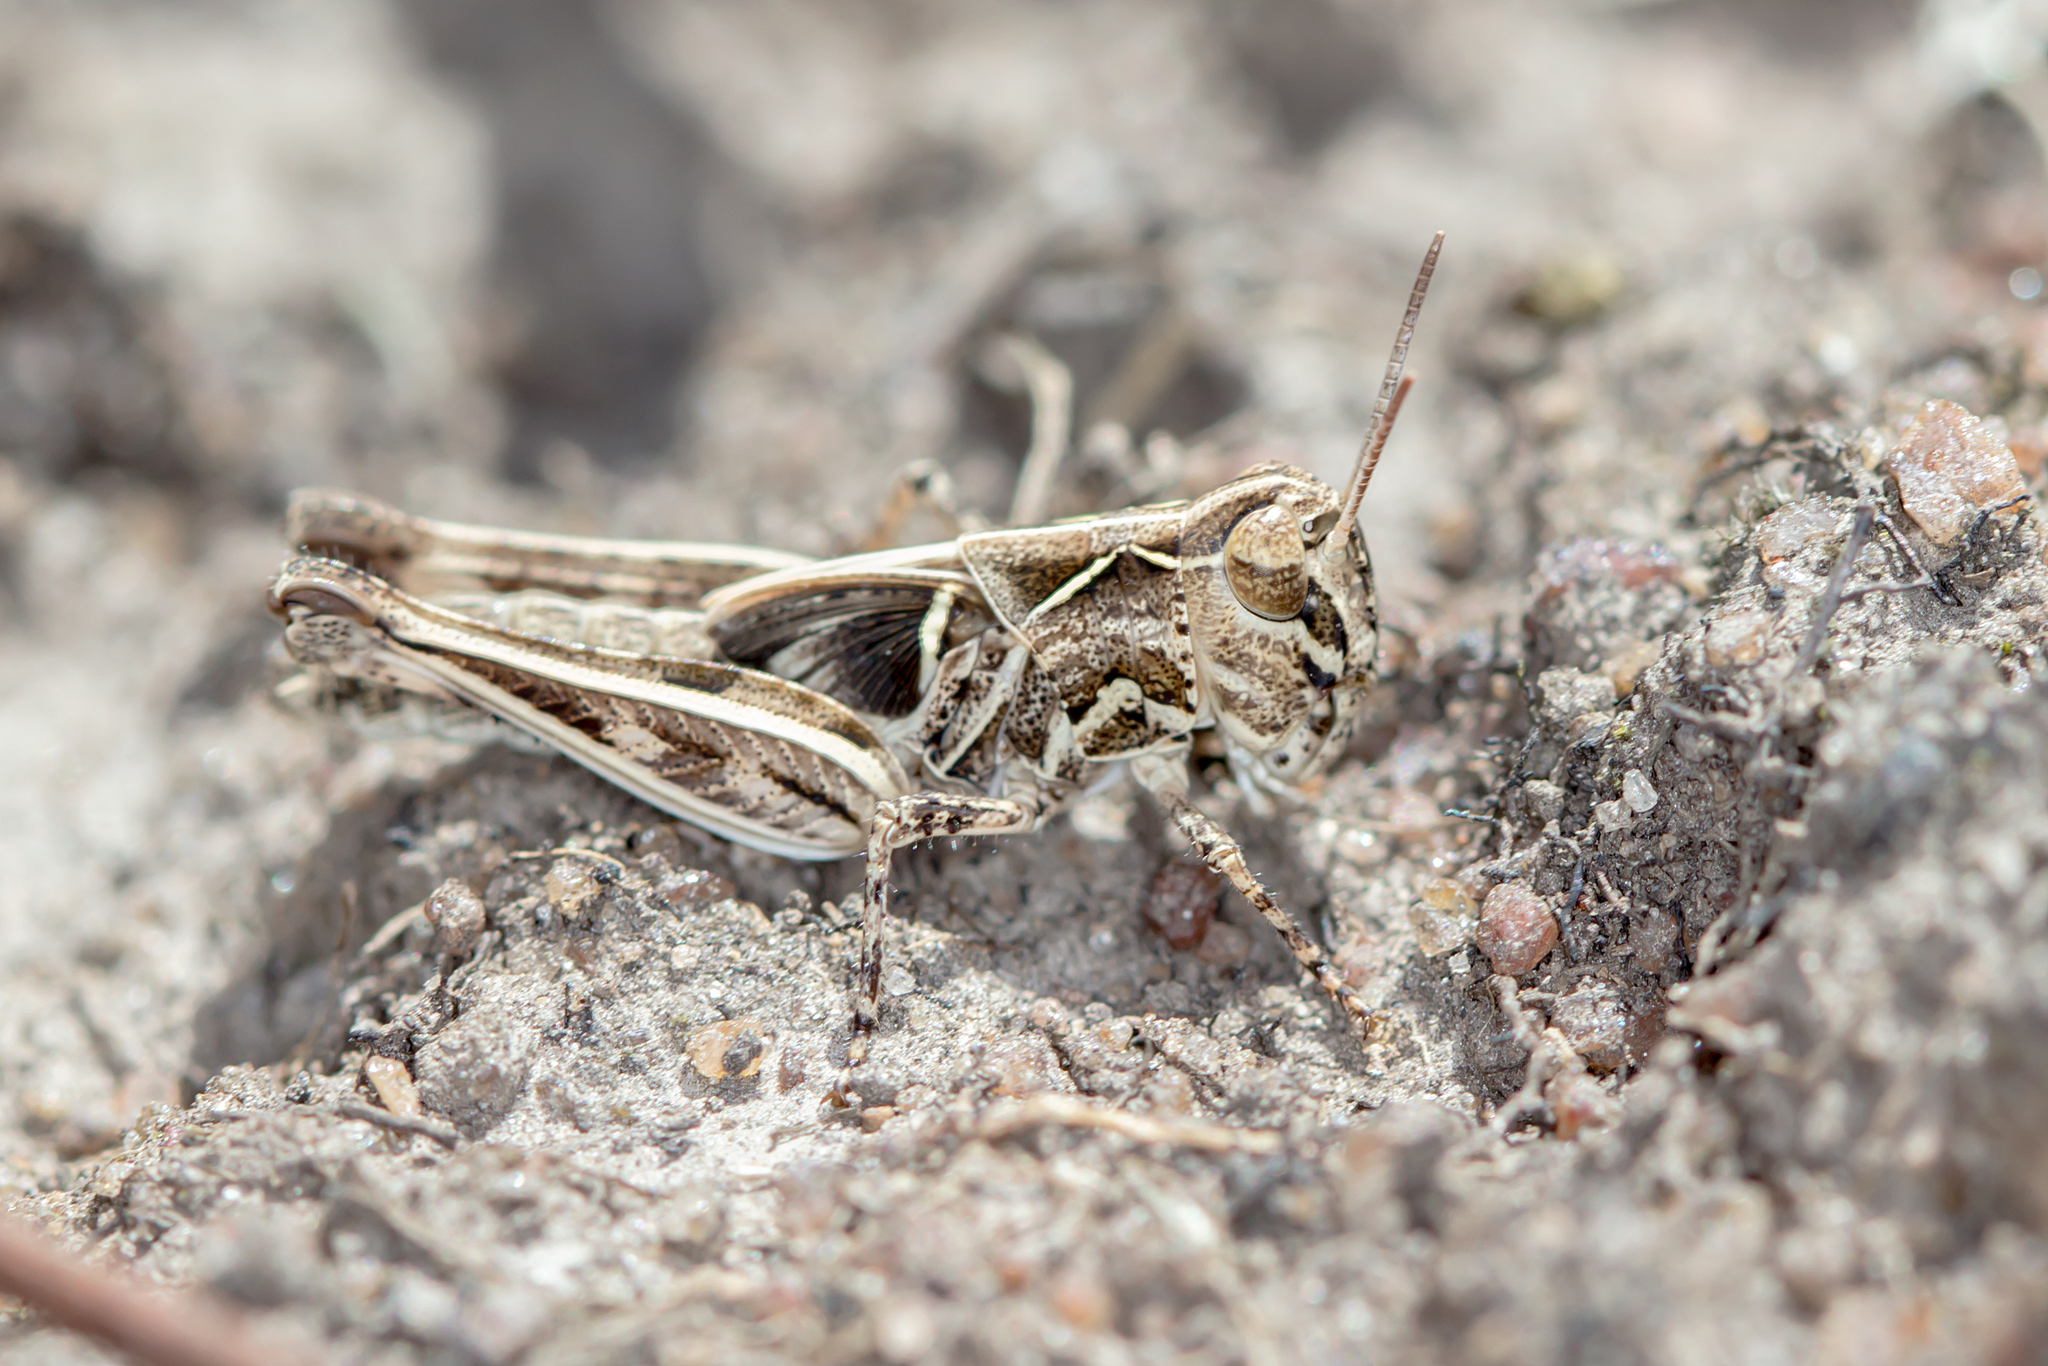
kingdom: Animalia
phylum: Arthropoda
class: Insecta
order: Orthoptera
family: Acrididae
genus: Oedaleus
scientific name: Oedaleus australis
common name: Eastern oedaleus
